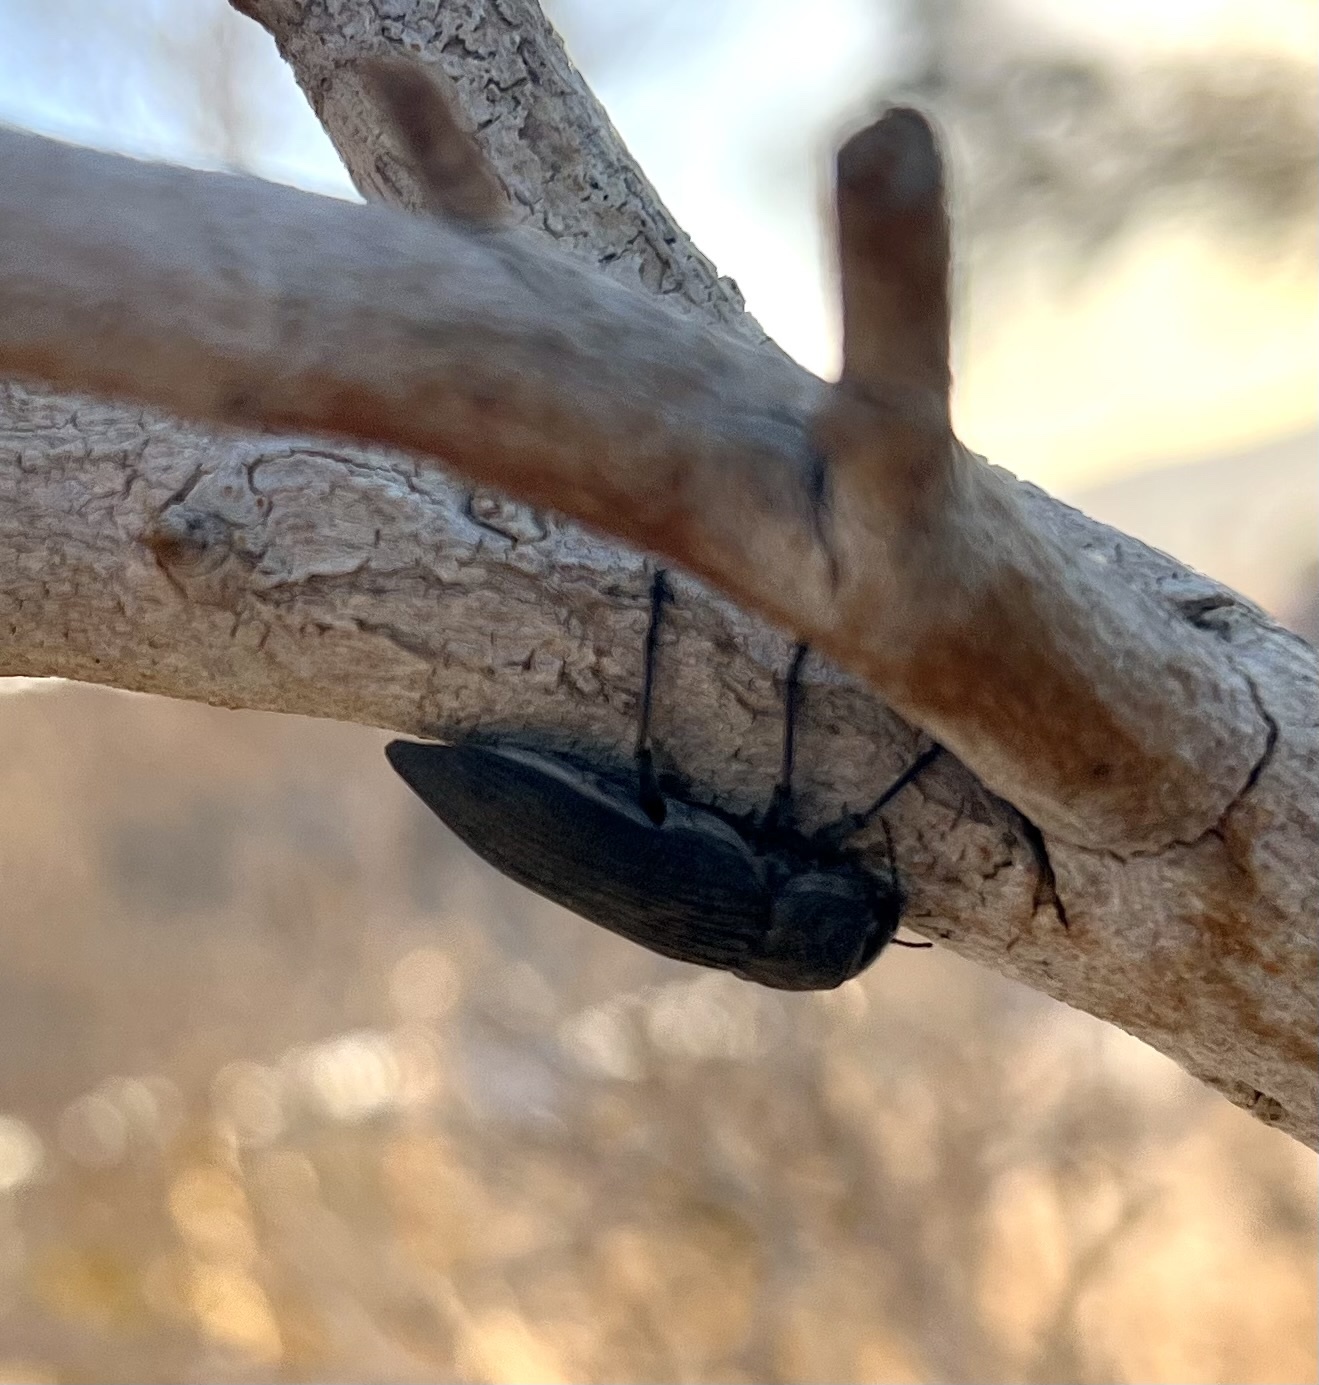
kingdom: Animalia
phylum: Arthropoda
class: Insecta
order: Coleoptera
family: Buprestidae
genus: Polycesta
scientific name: Polycesta aruensis
